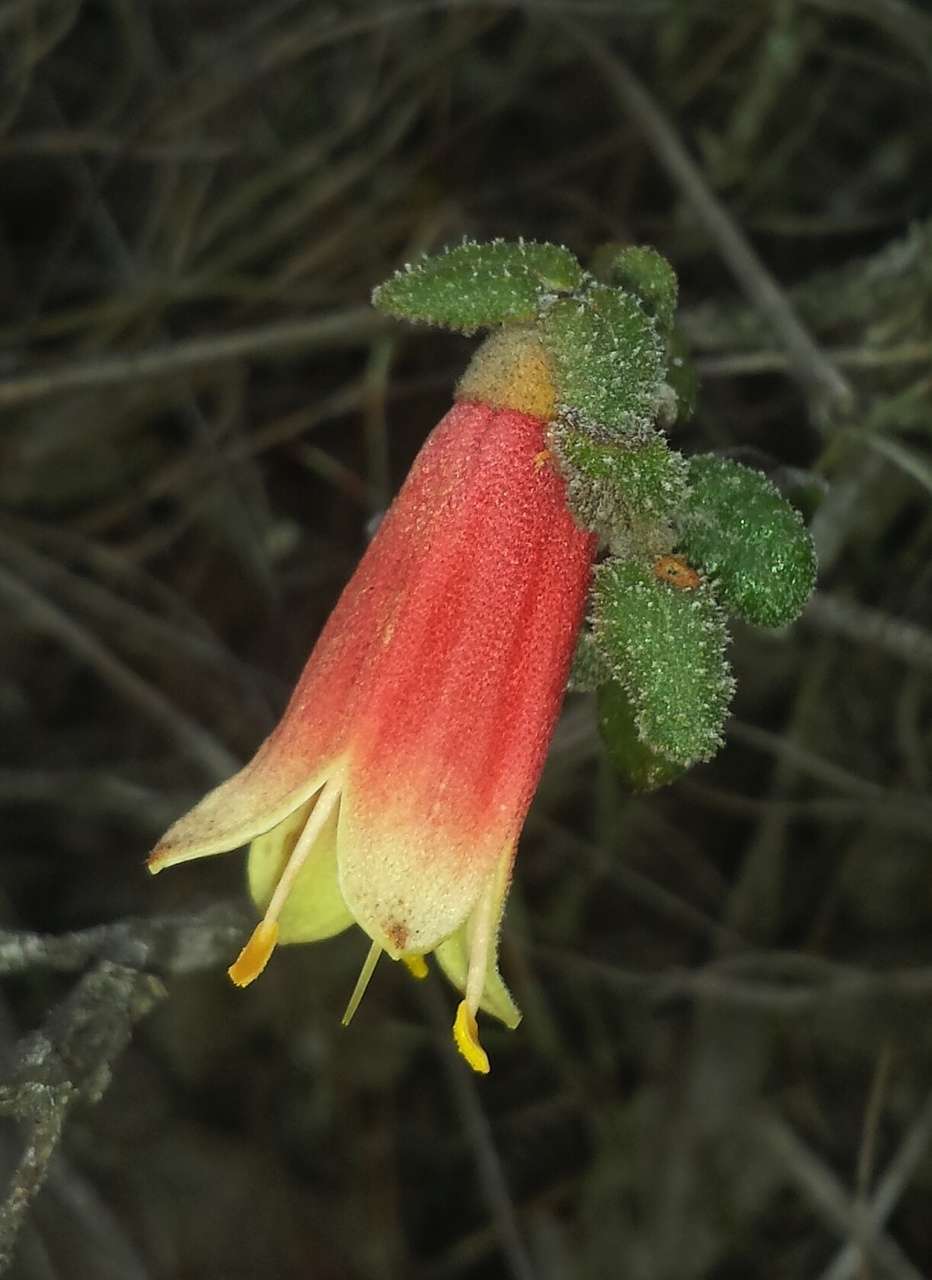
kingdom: Plantae
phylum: Tracheophyta
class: Magnoliopsida
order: Sapindales
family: Rutaceae
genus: Correa
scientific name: Correa reflexa
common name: Common correa
